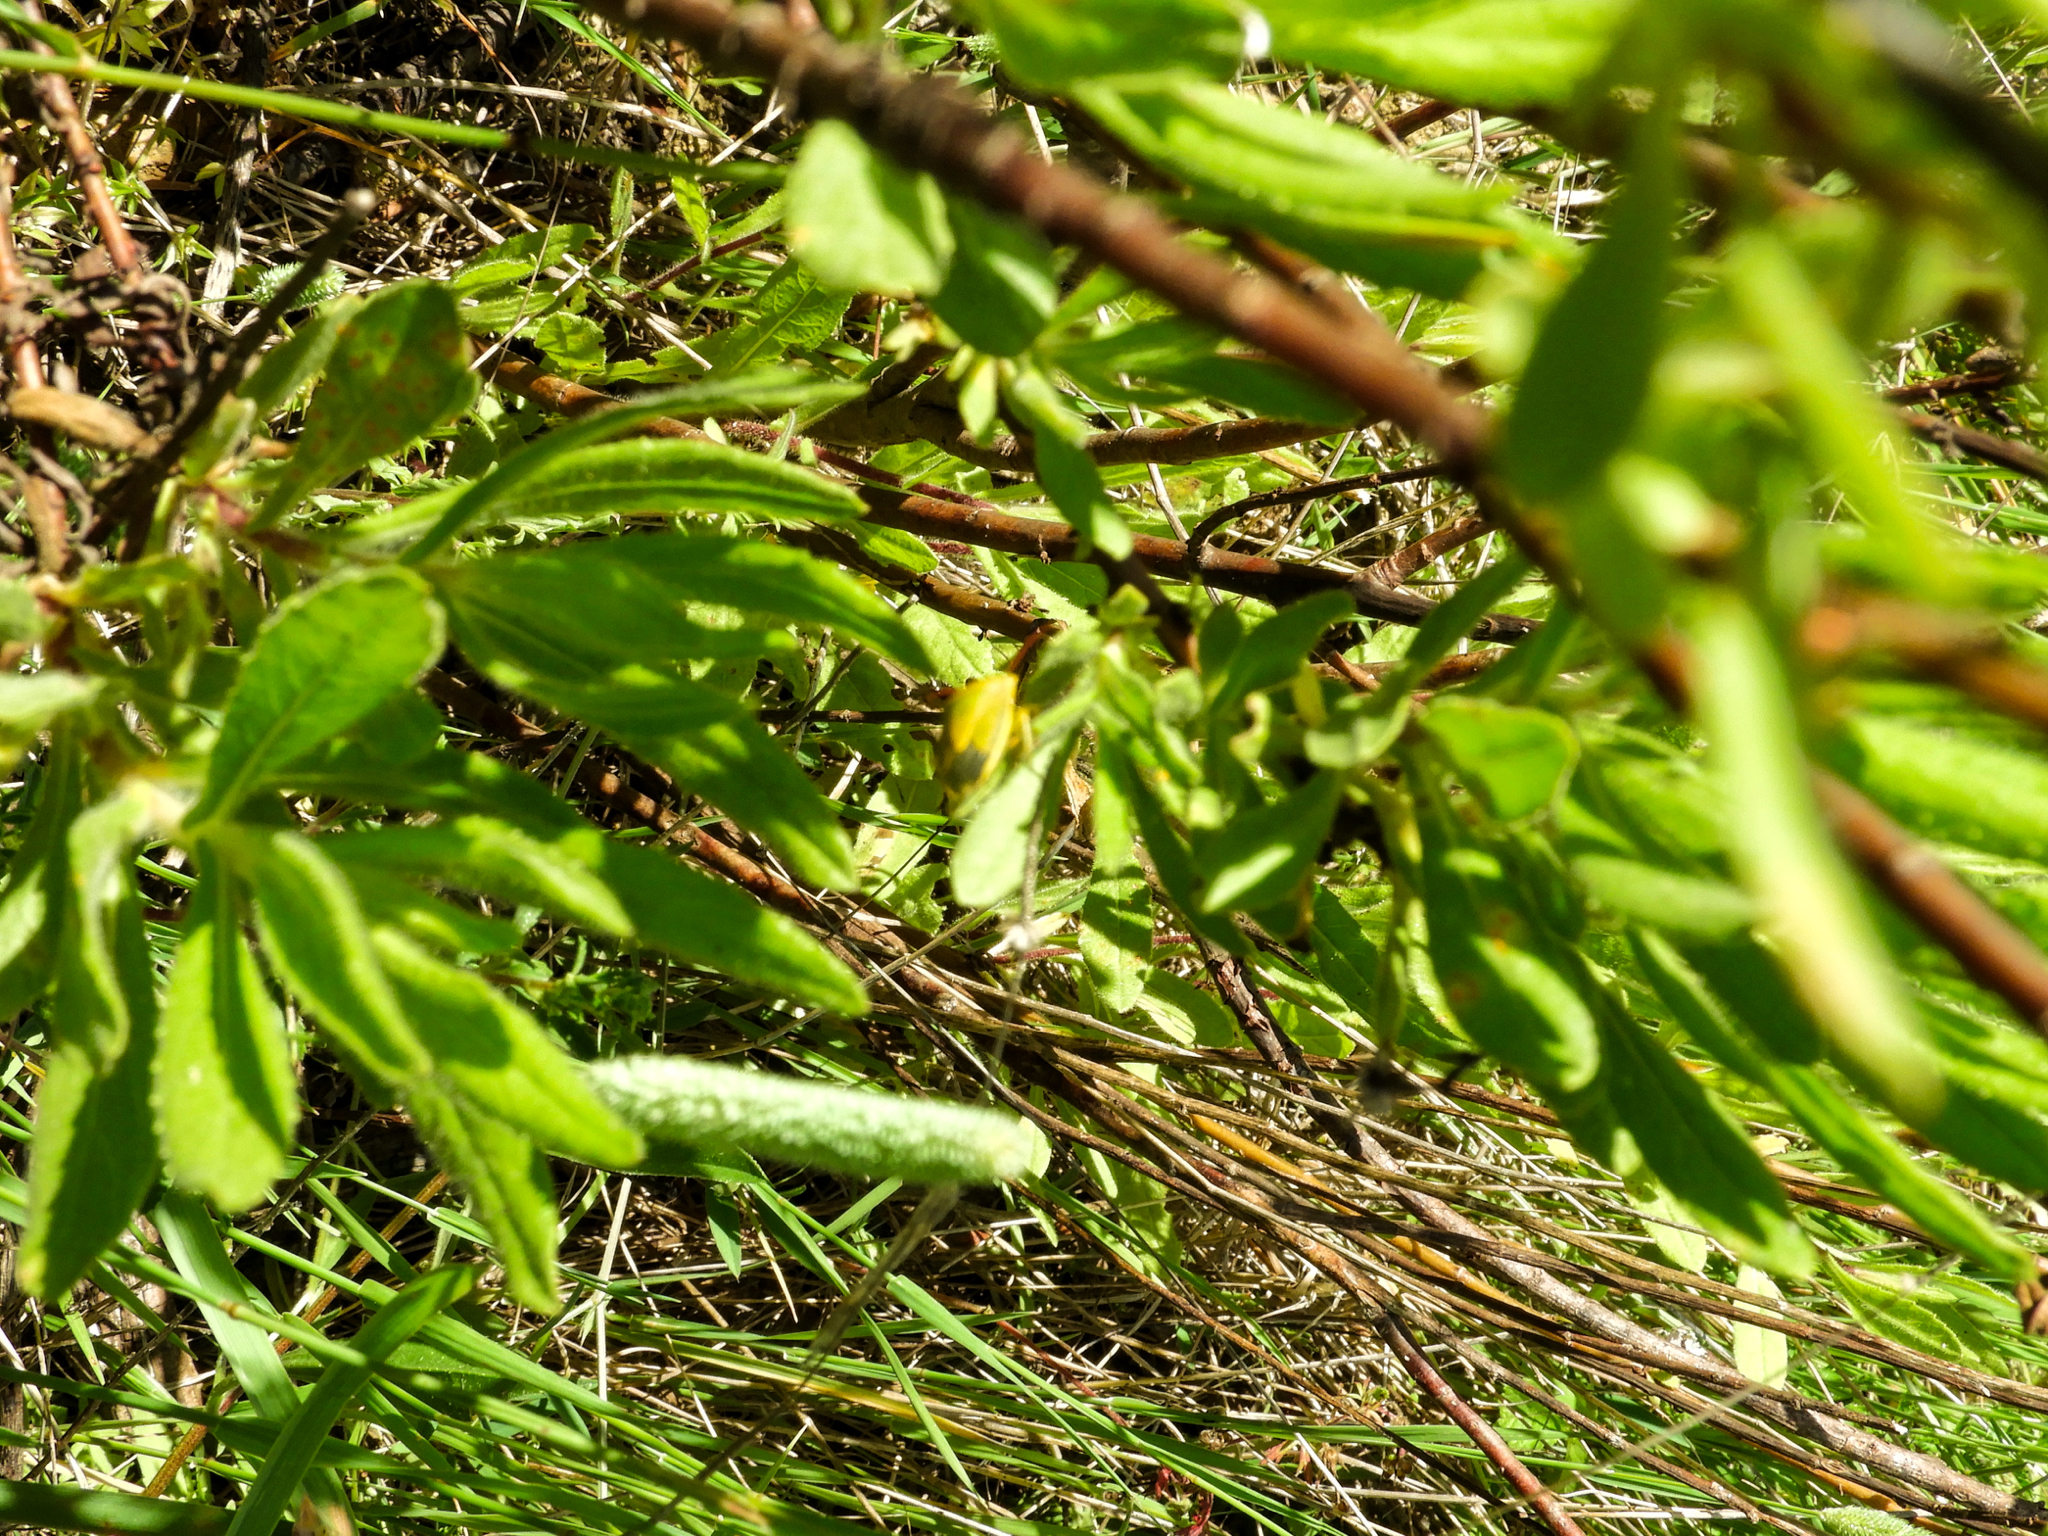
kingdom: Animalia
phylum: Arthropoda
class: Insecta
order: Hemiptera
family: Pentatomidae
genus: Piezodorus
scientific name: Piezodorus lituratus
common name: Stink bug
